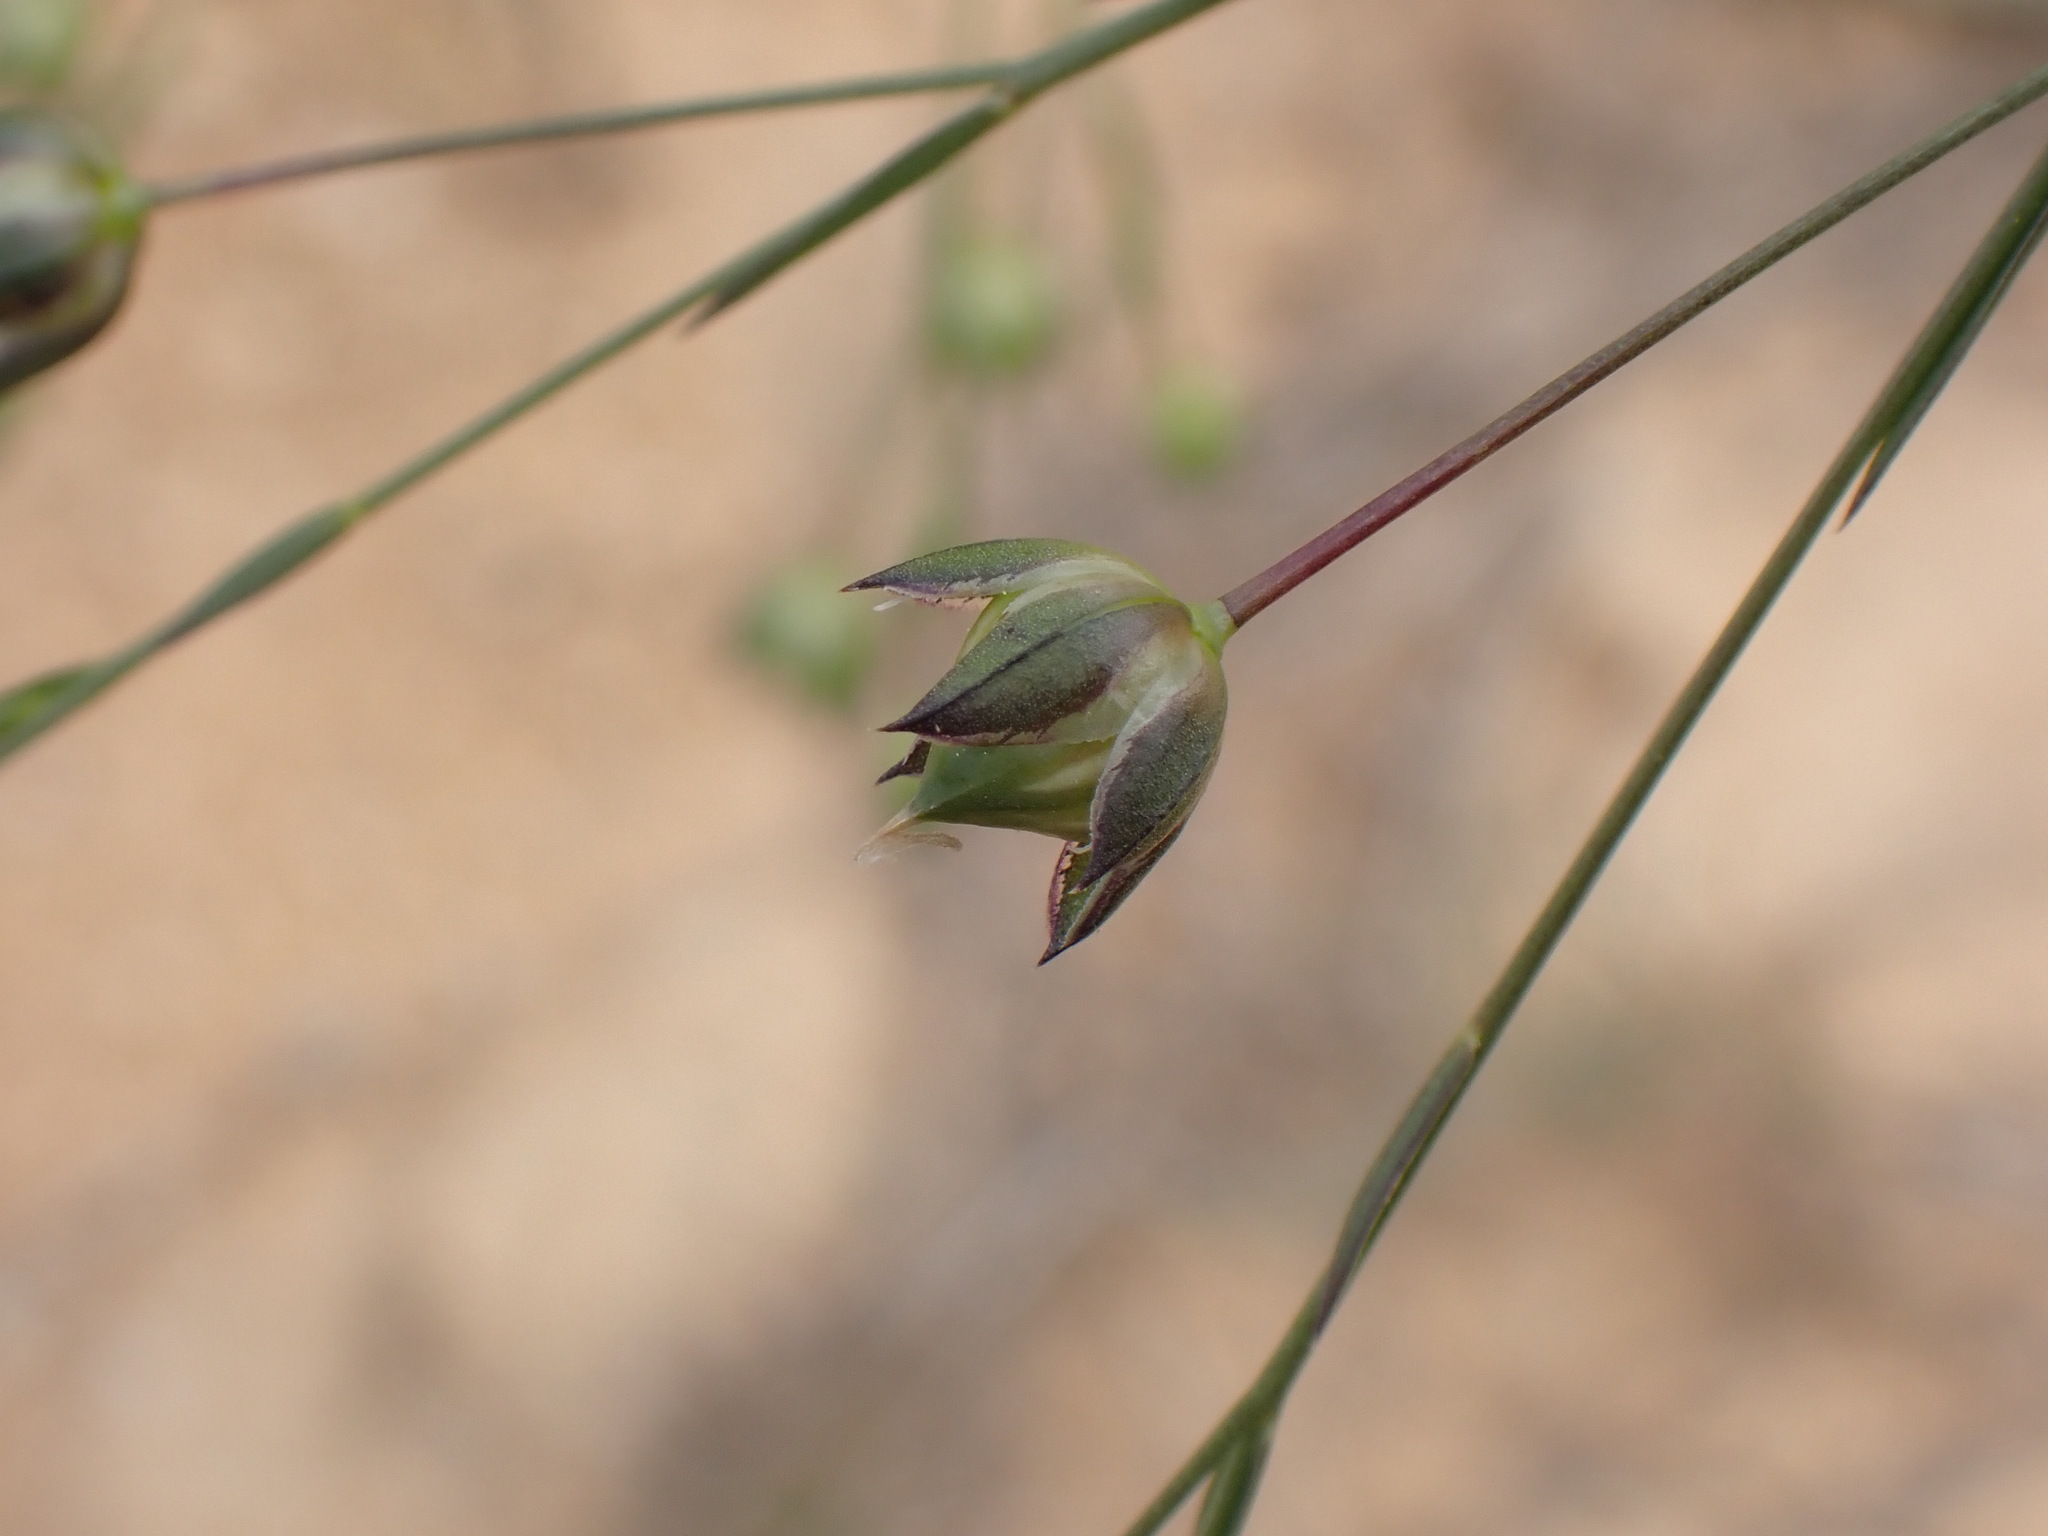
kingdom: Plantae
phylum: Tracheophyta
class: Magnoliopsida
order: Malpighiales
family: Linaceae
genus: Linum
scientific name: Linum bienne
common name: Pale flax
